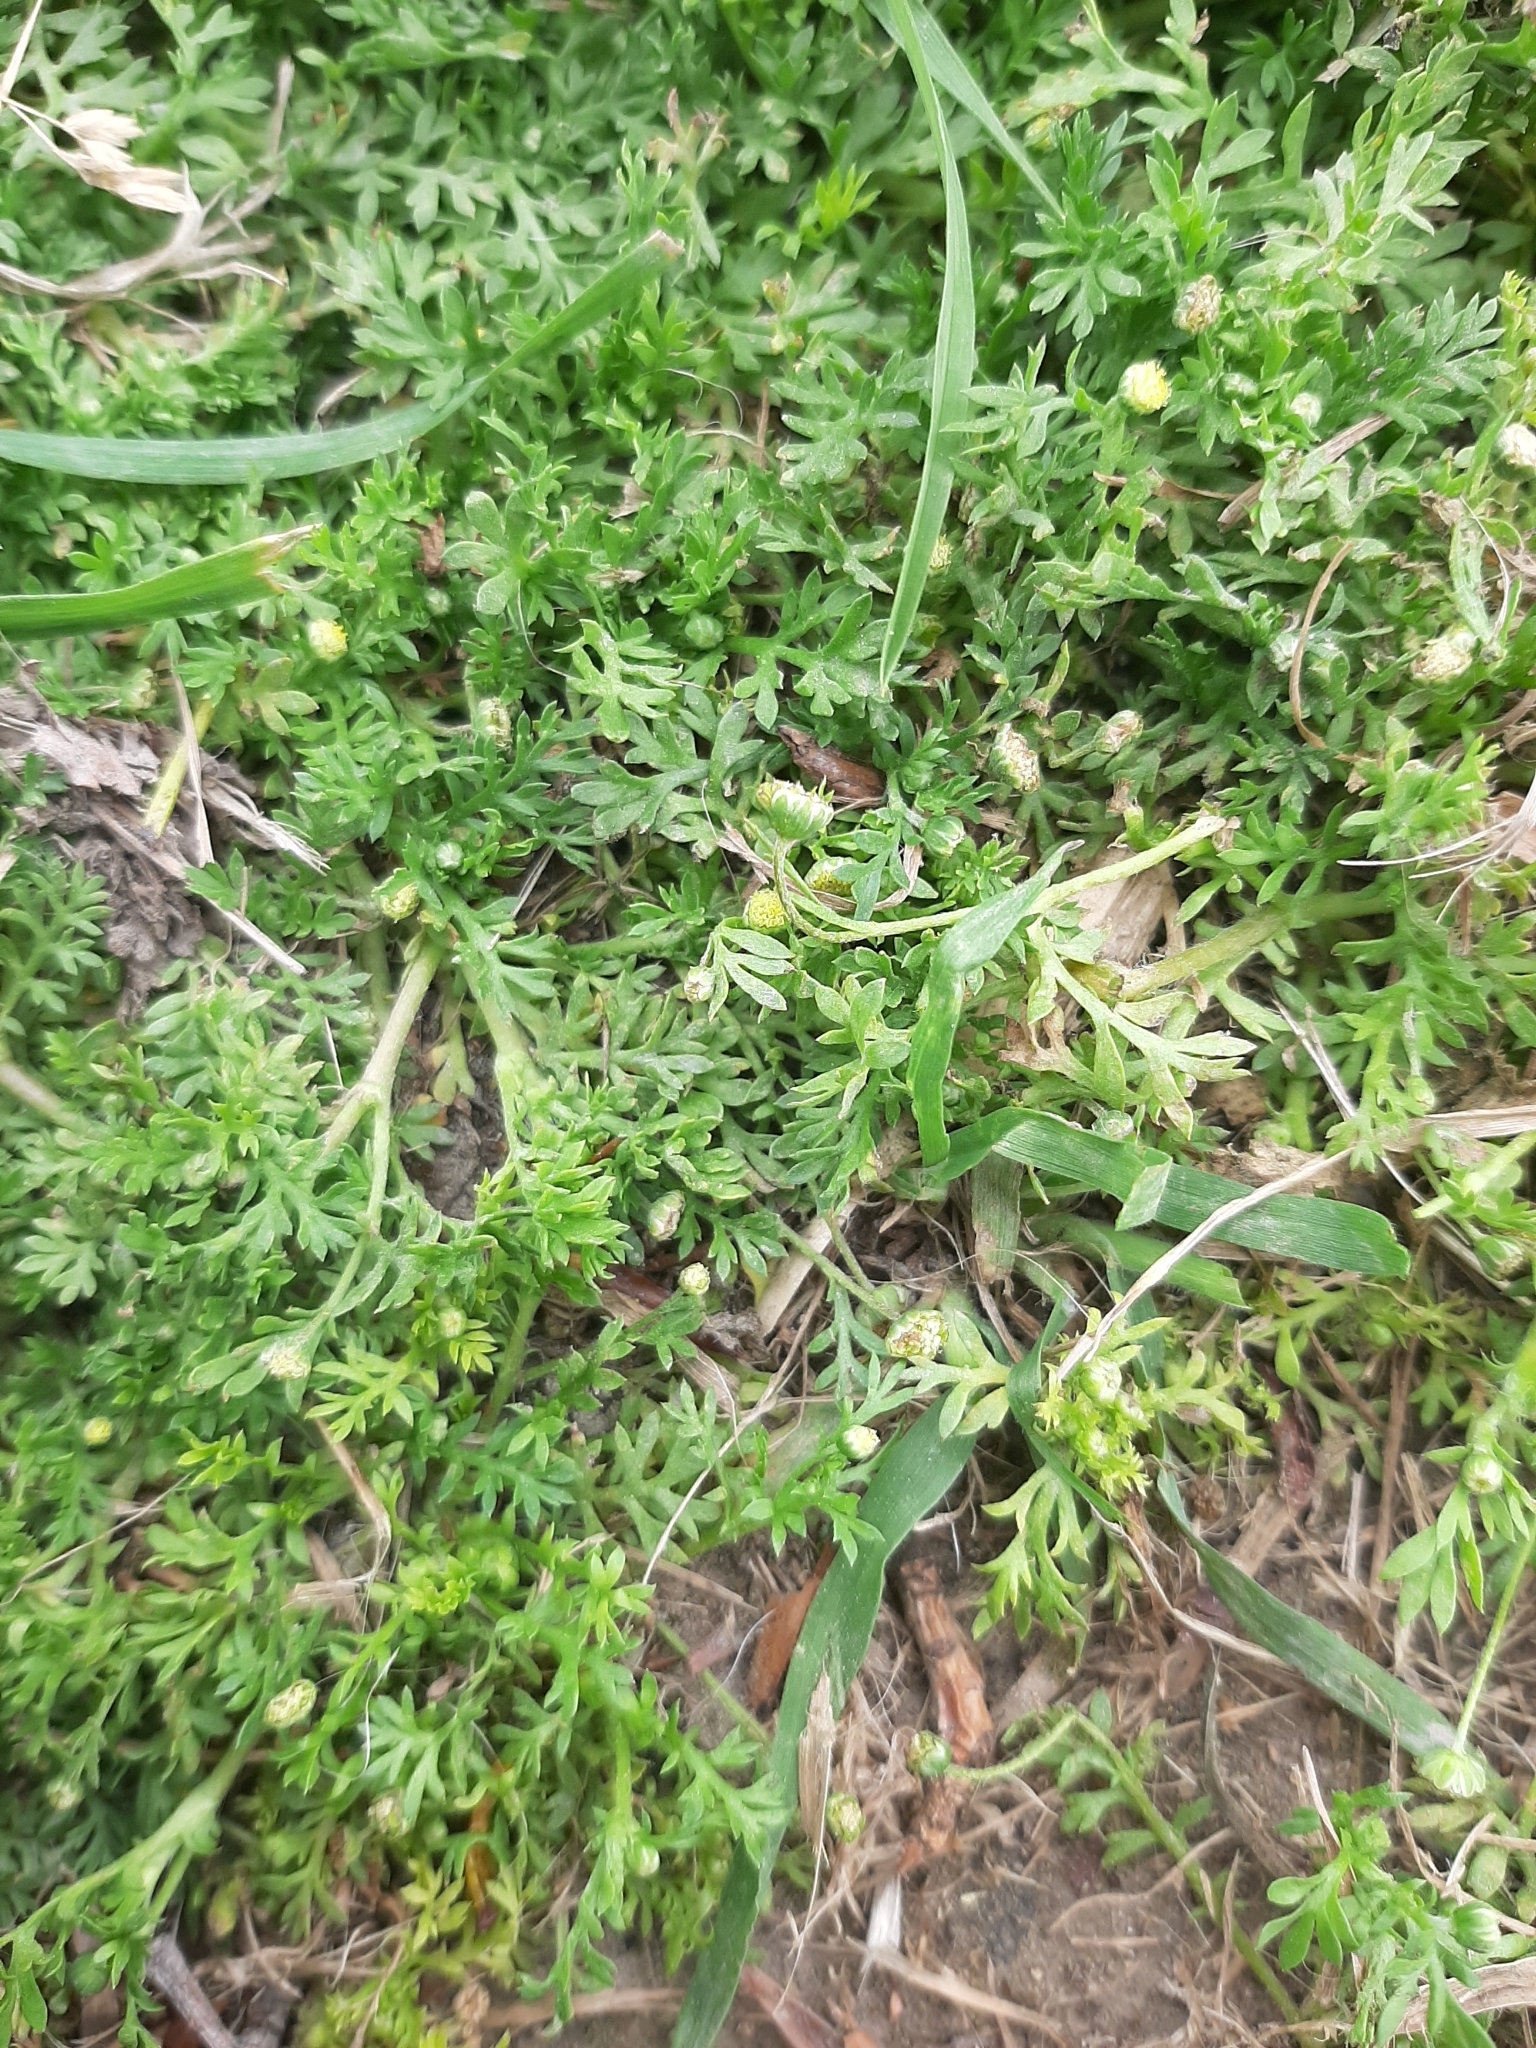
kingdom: Plantae
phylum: Tracheophyta
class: Magnoliopsida
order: Asterales
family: Asteraceae
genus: Cotula
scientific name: Cotula australis
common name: Australian waterbuttons
